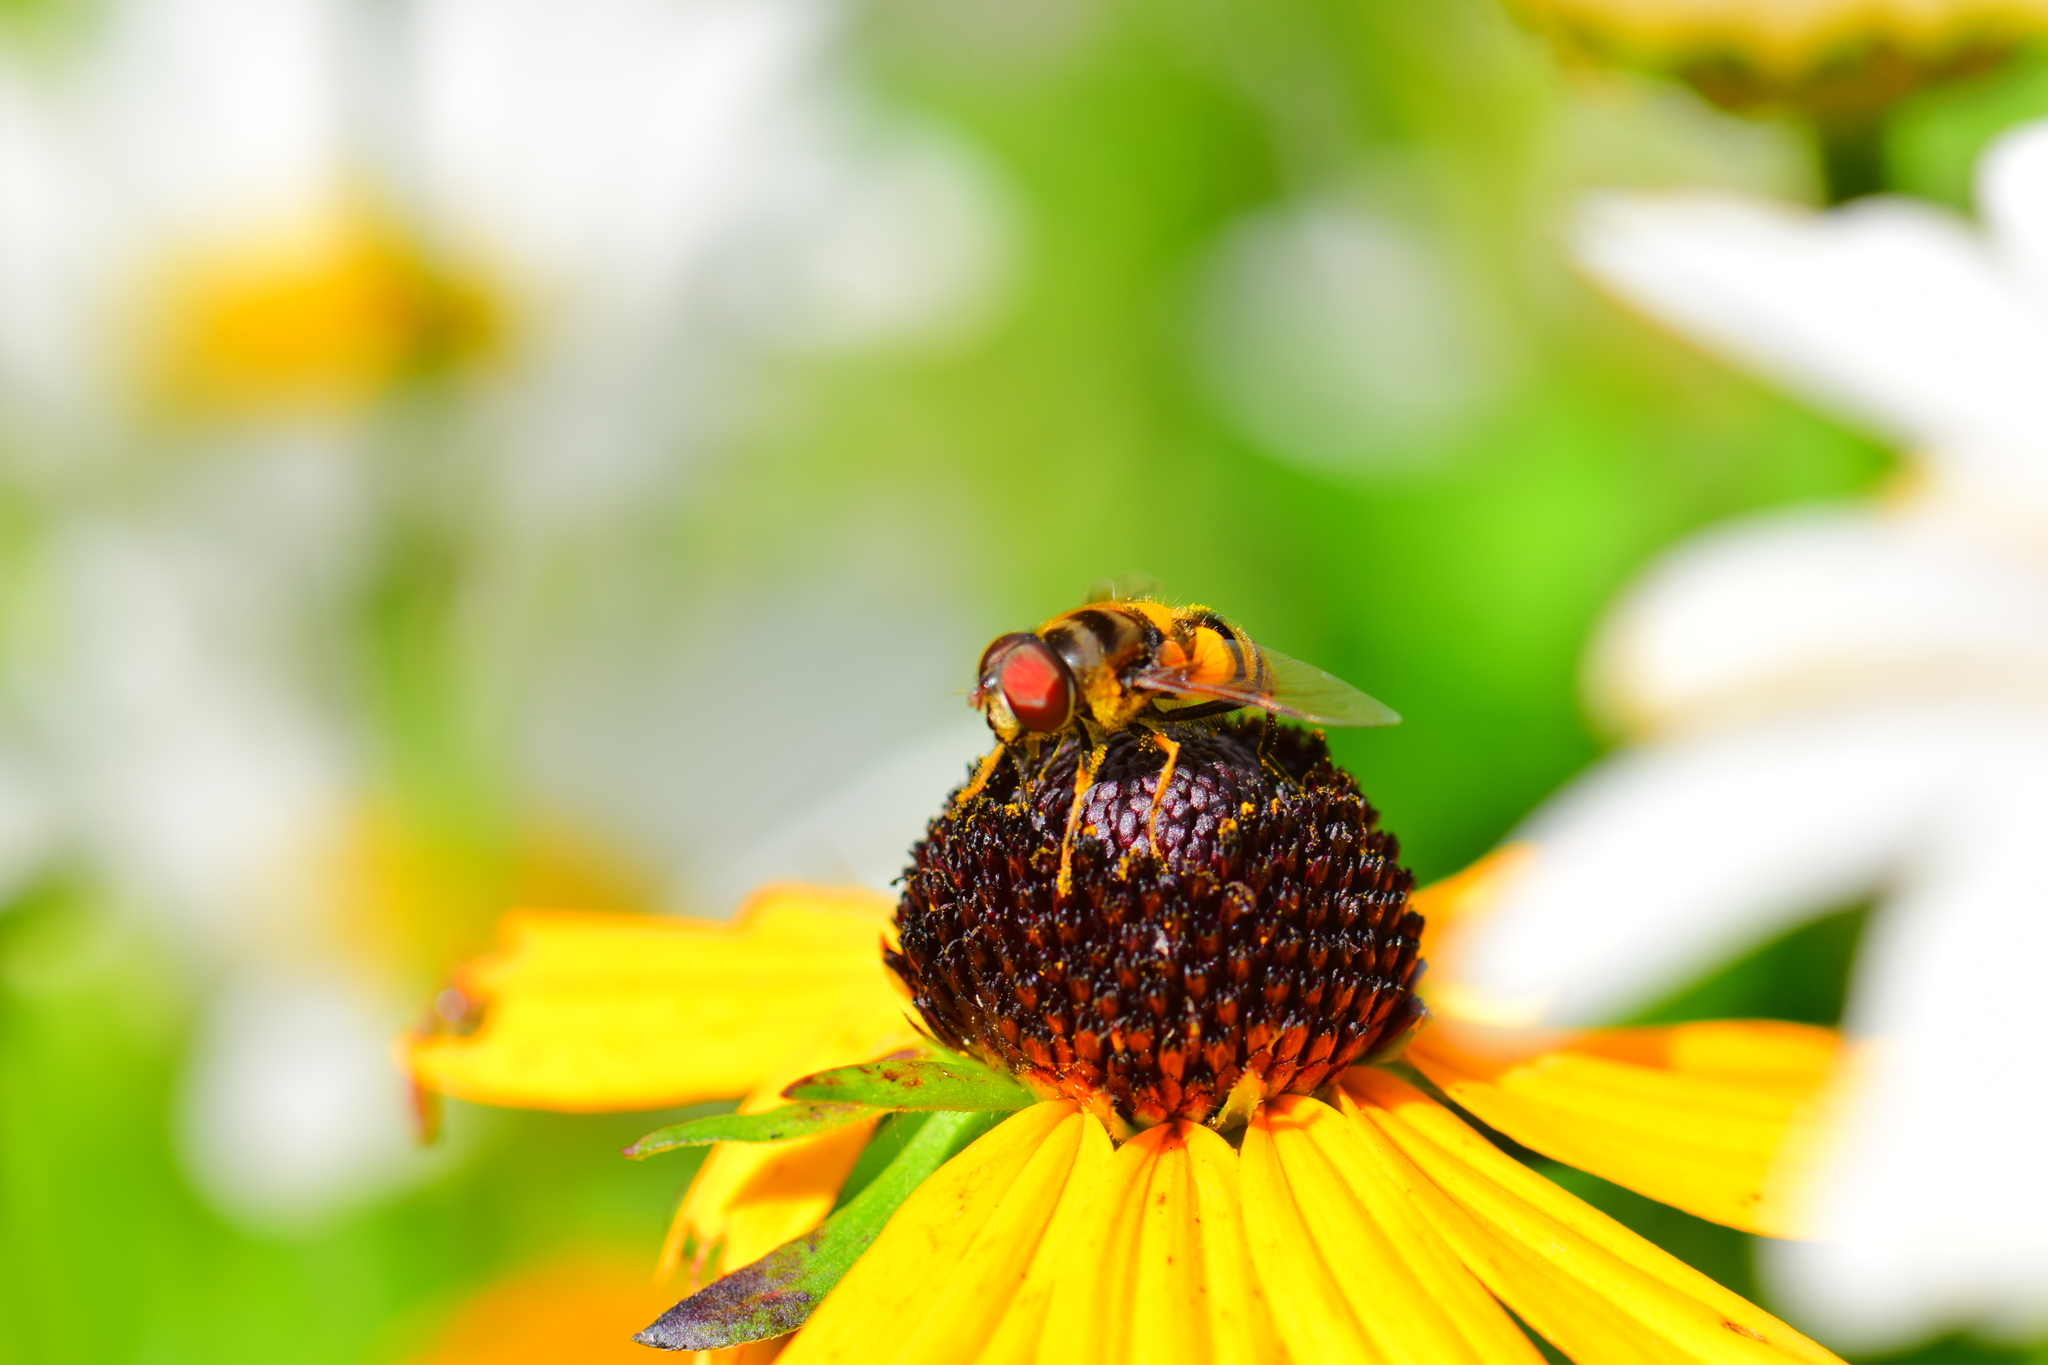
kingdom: Animalia
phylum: Arthropoda
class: Insecta
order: Diptera
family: Syrphidae
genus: Eristalis
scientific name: Eristalis transversa
